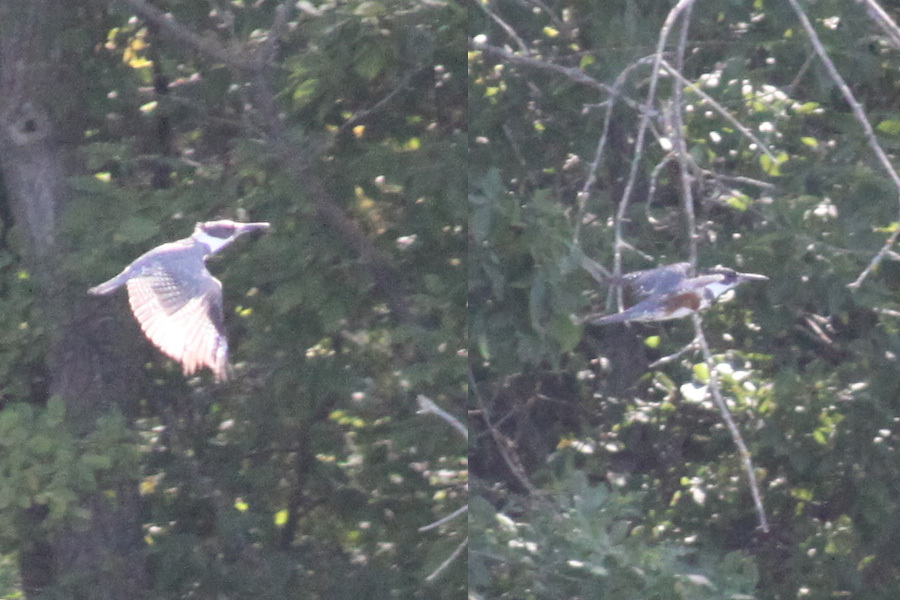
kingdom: Animalia
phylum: Chordata
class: Aves
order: Coraciiformes
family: Alcedinidae
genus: Megaceryle
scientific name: Megaceryle alcyon
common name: Belted kingfisher
